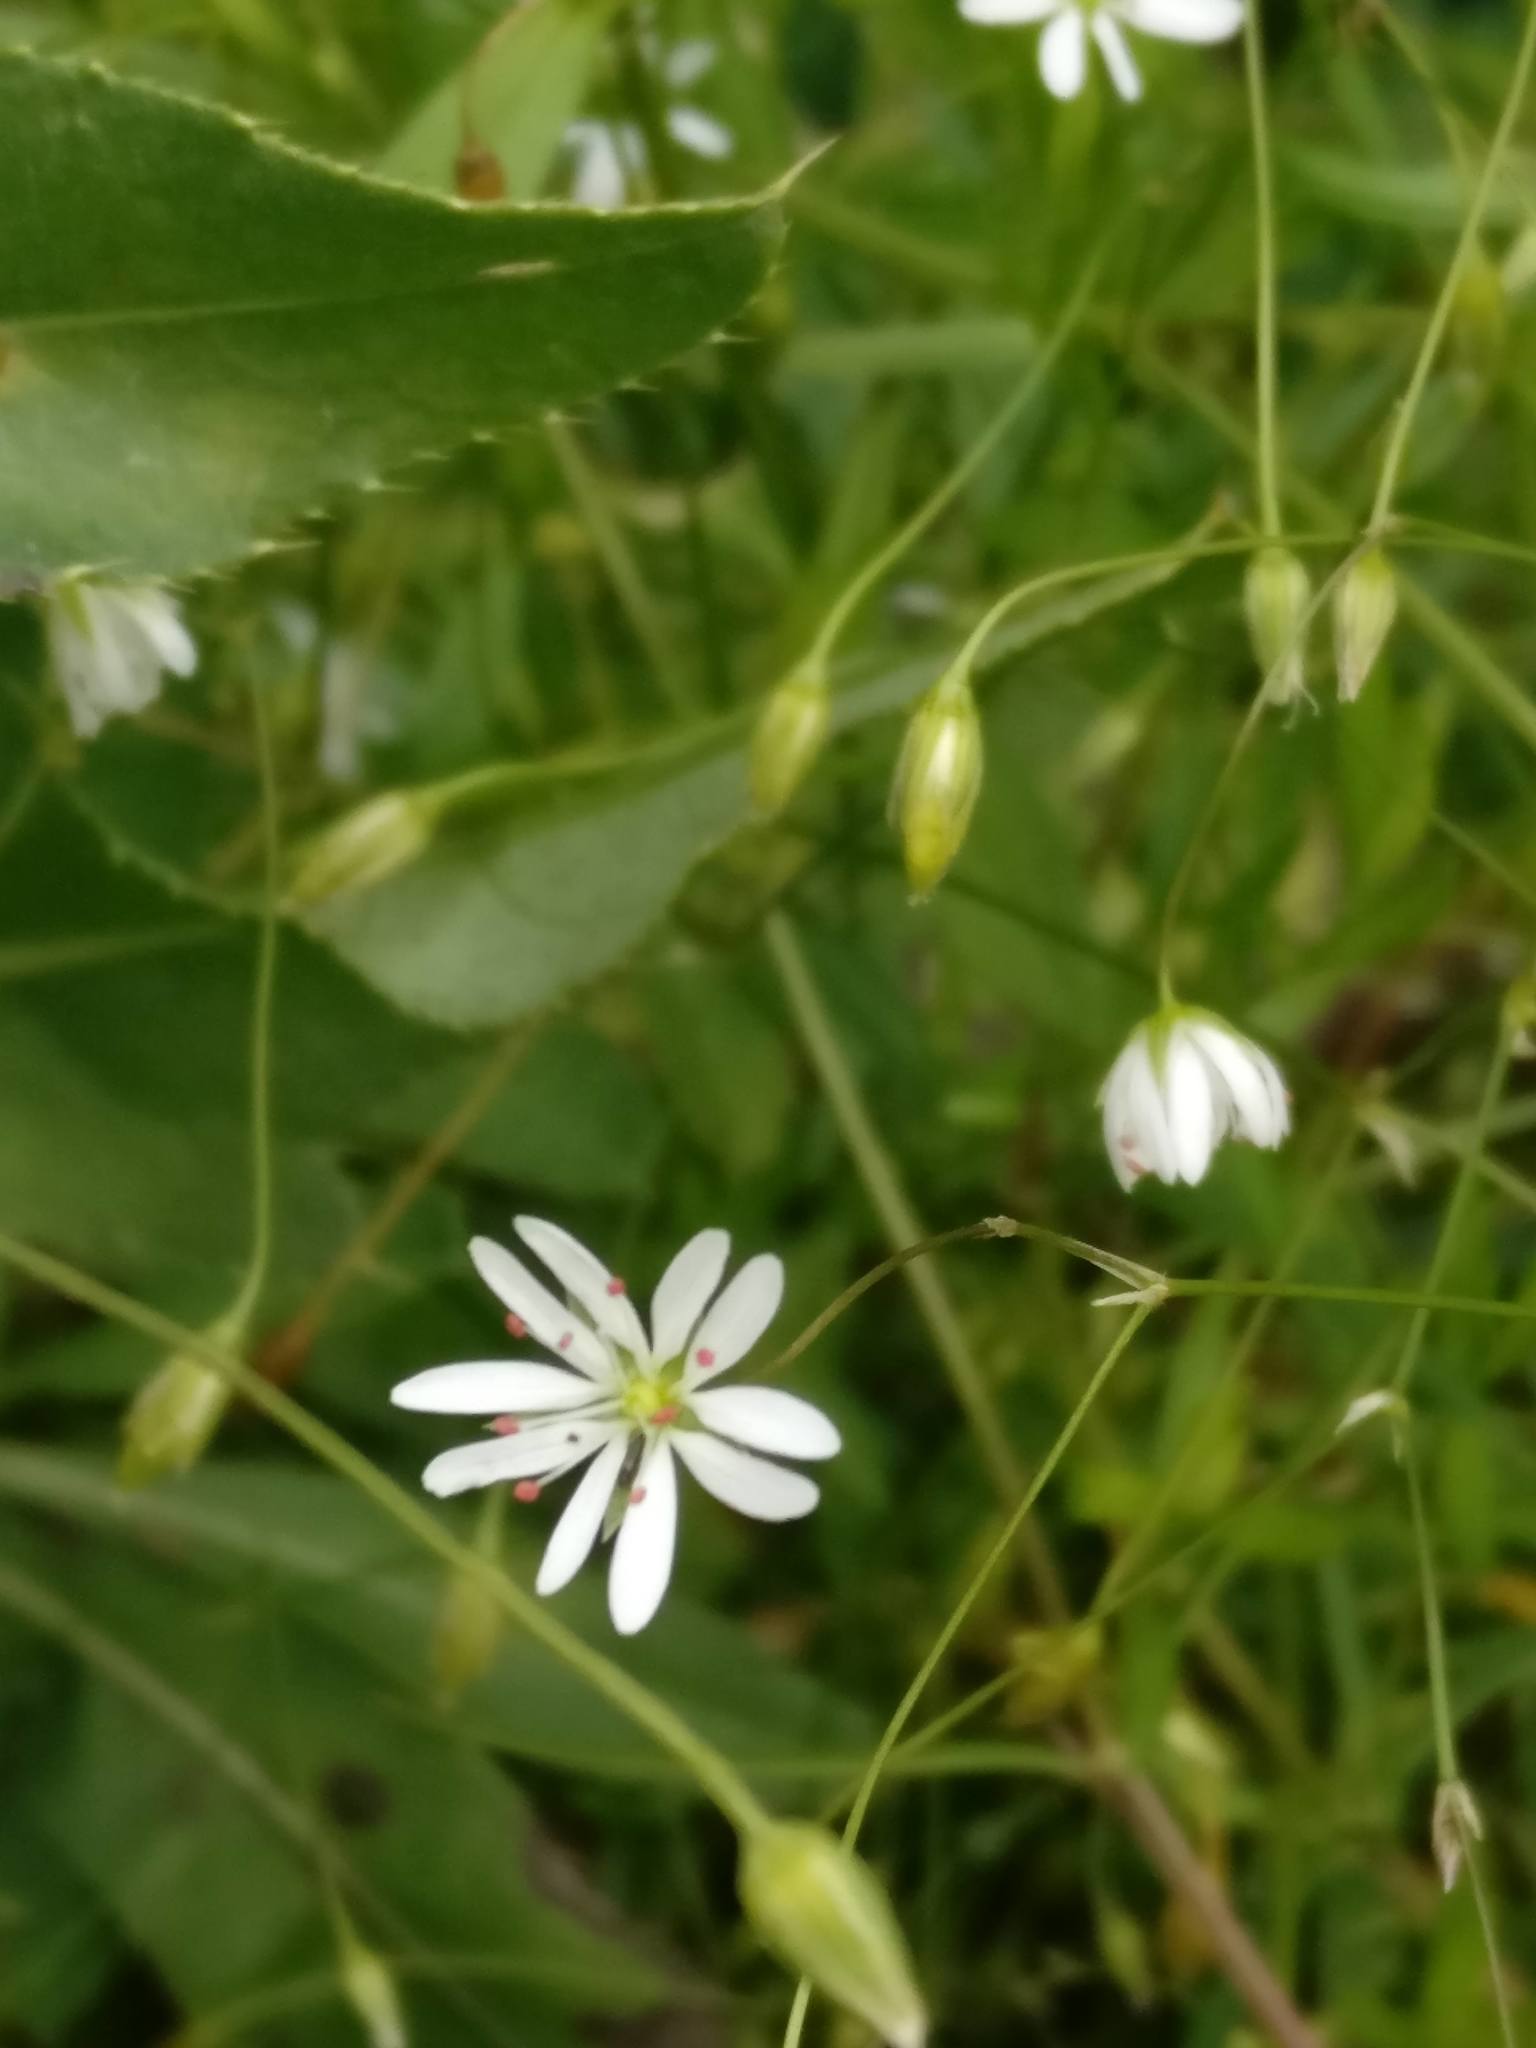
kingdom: Plantae
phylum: Tracheophyta
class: Magnoliopsida
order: Caryophyllales
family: Caryophyllaceae
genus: Stellaria
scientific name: Stellaria graminea
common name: Grass-like starwort
